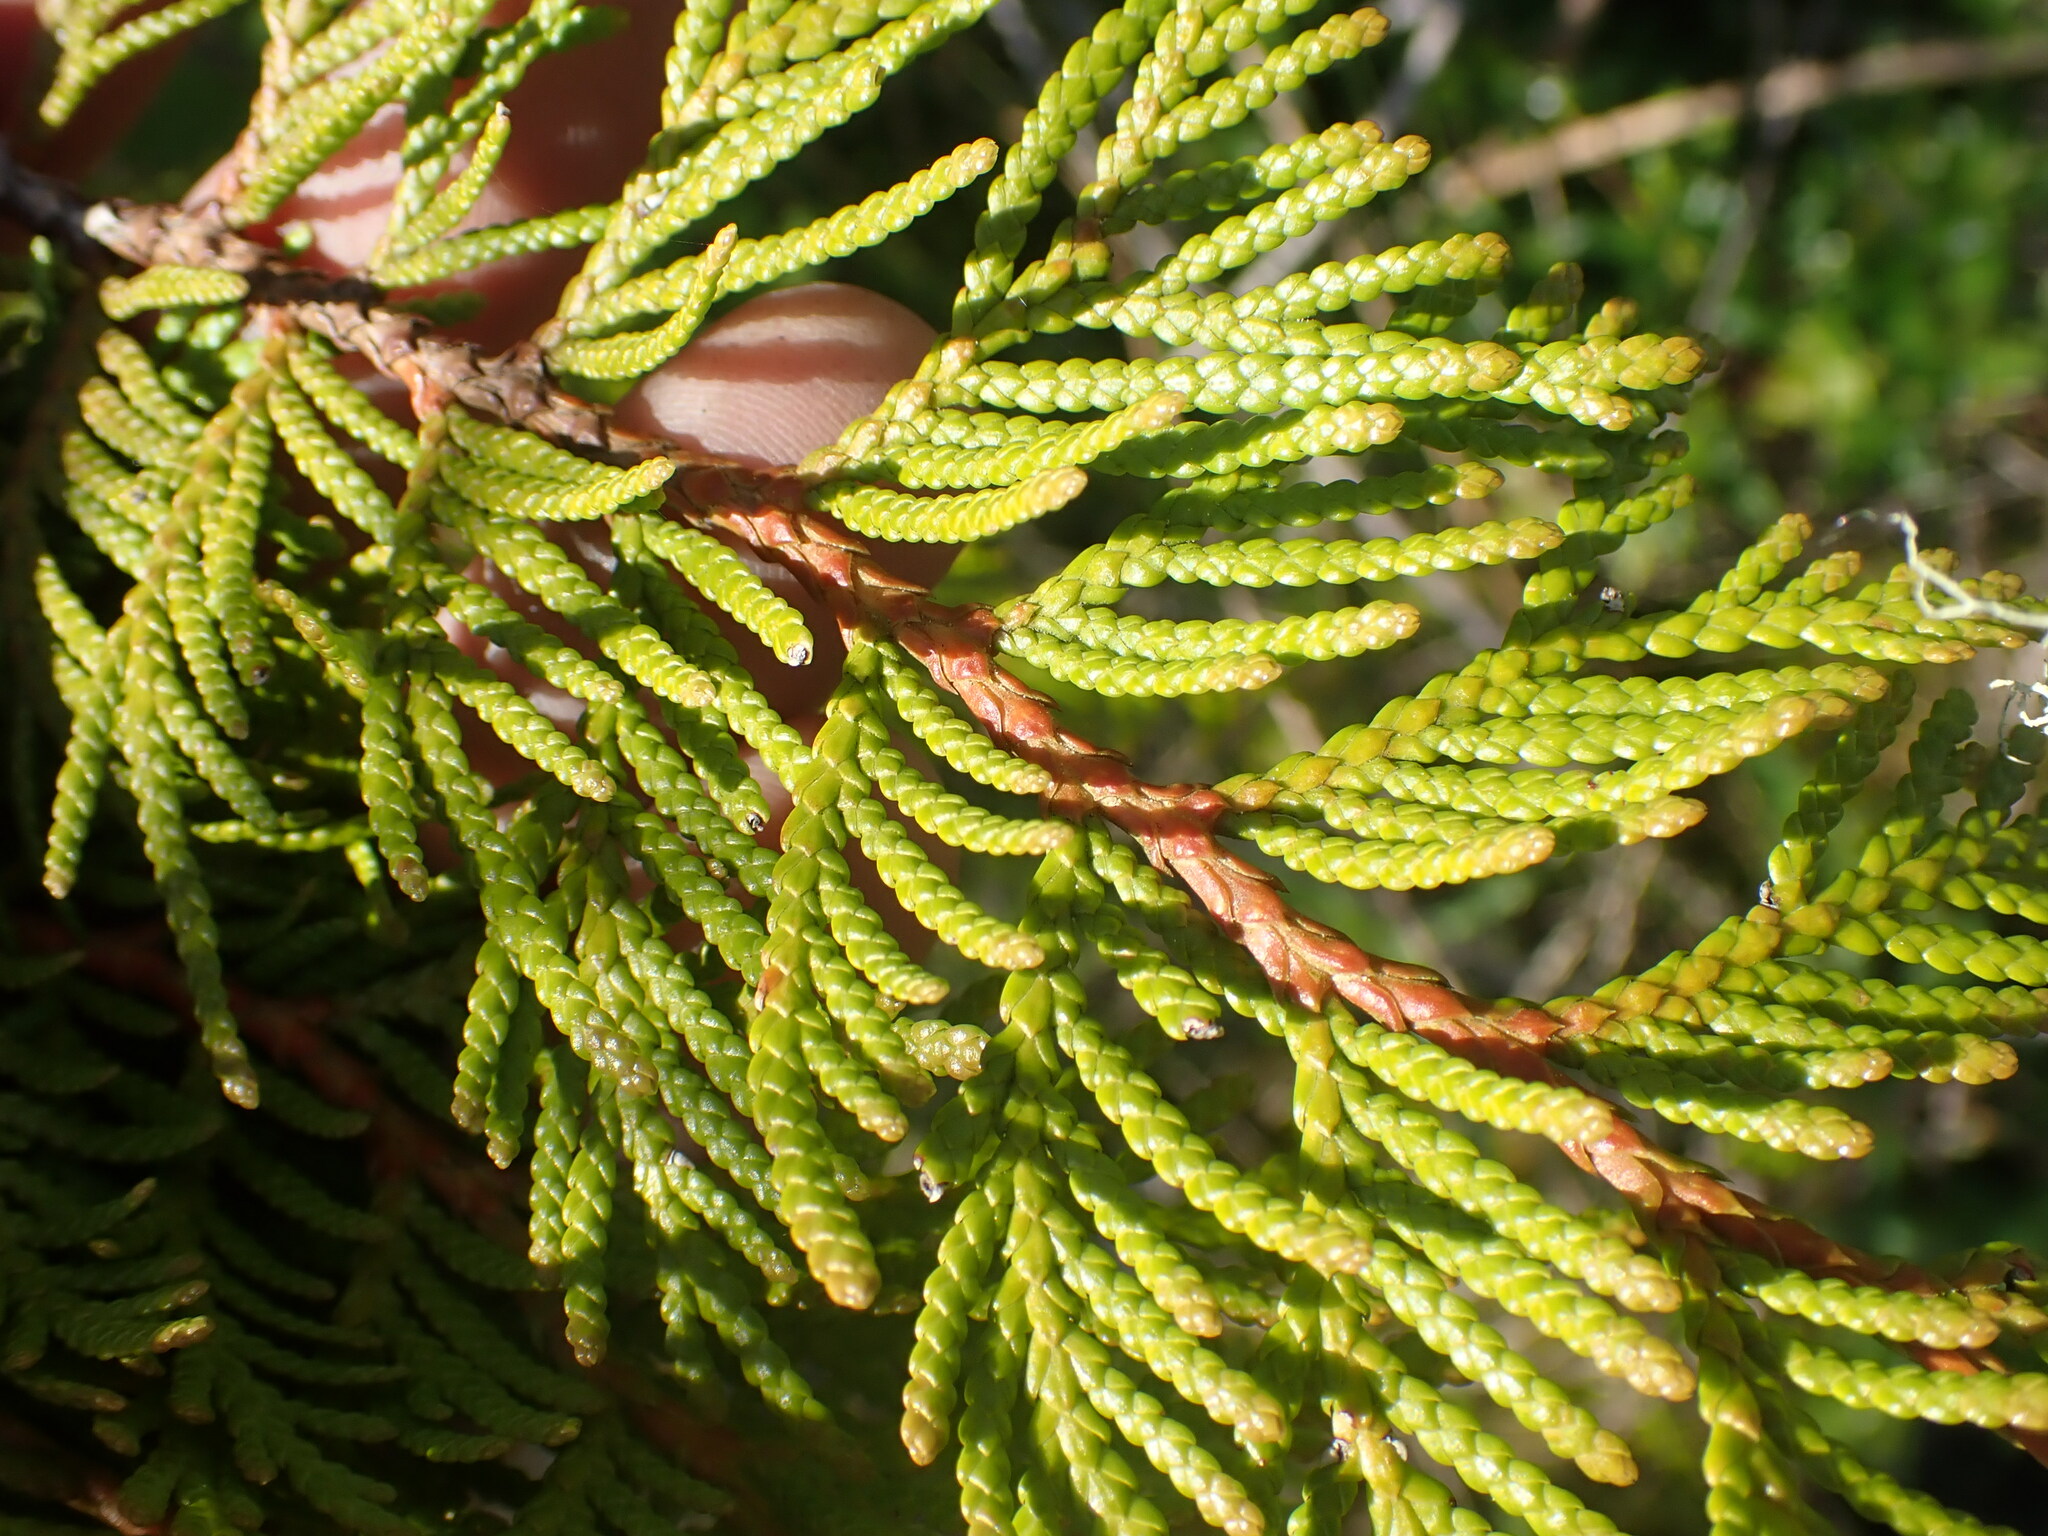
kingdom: Plantae
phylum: Tracheophyta
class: Pinopsida
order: Pinales
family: Cupressaceae
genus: Thuja
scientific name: Thuja plicata
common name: Western red-cedar
